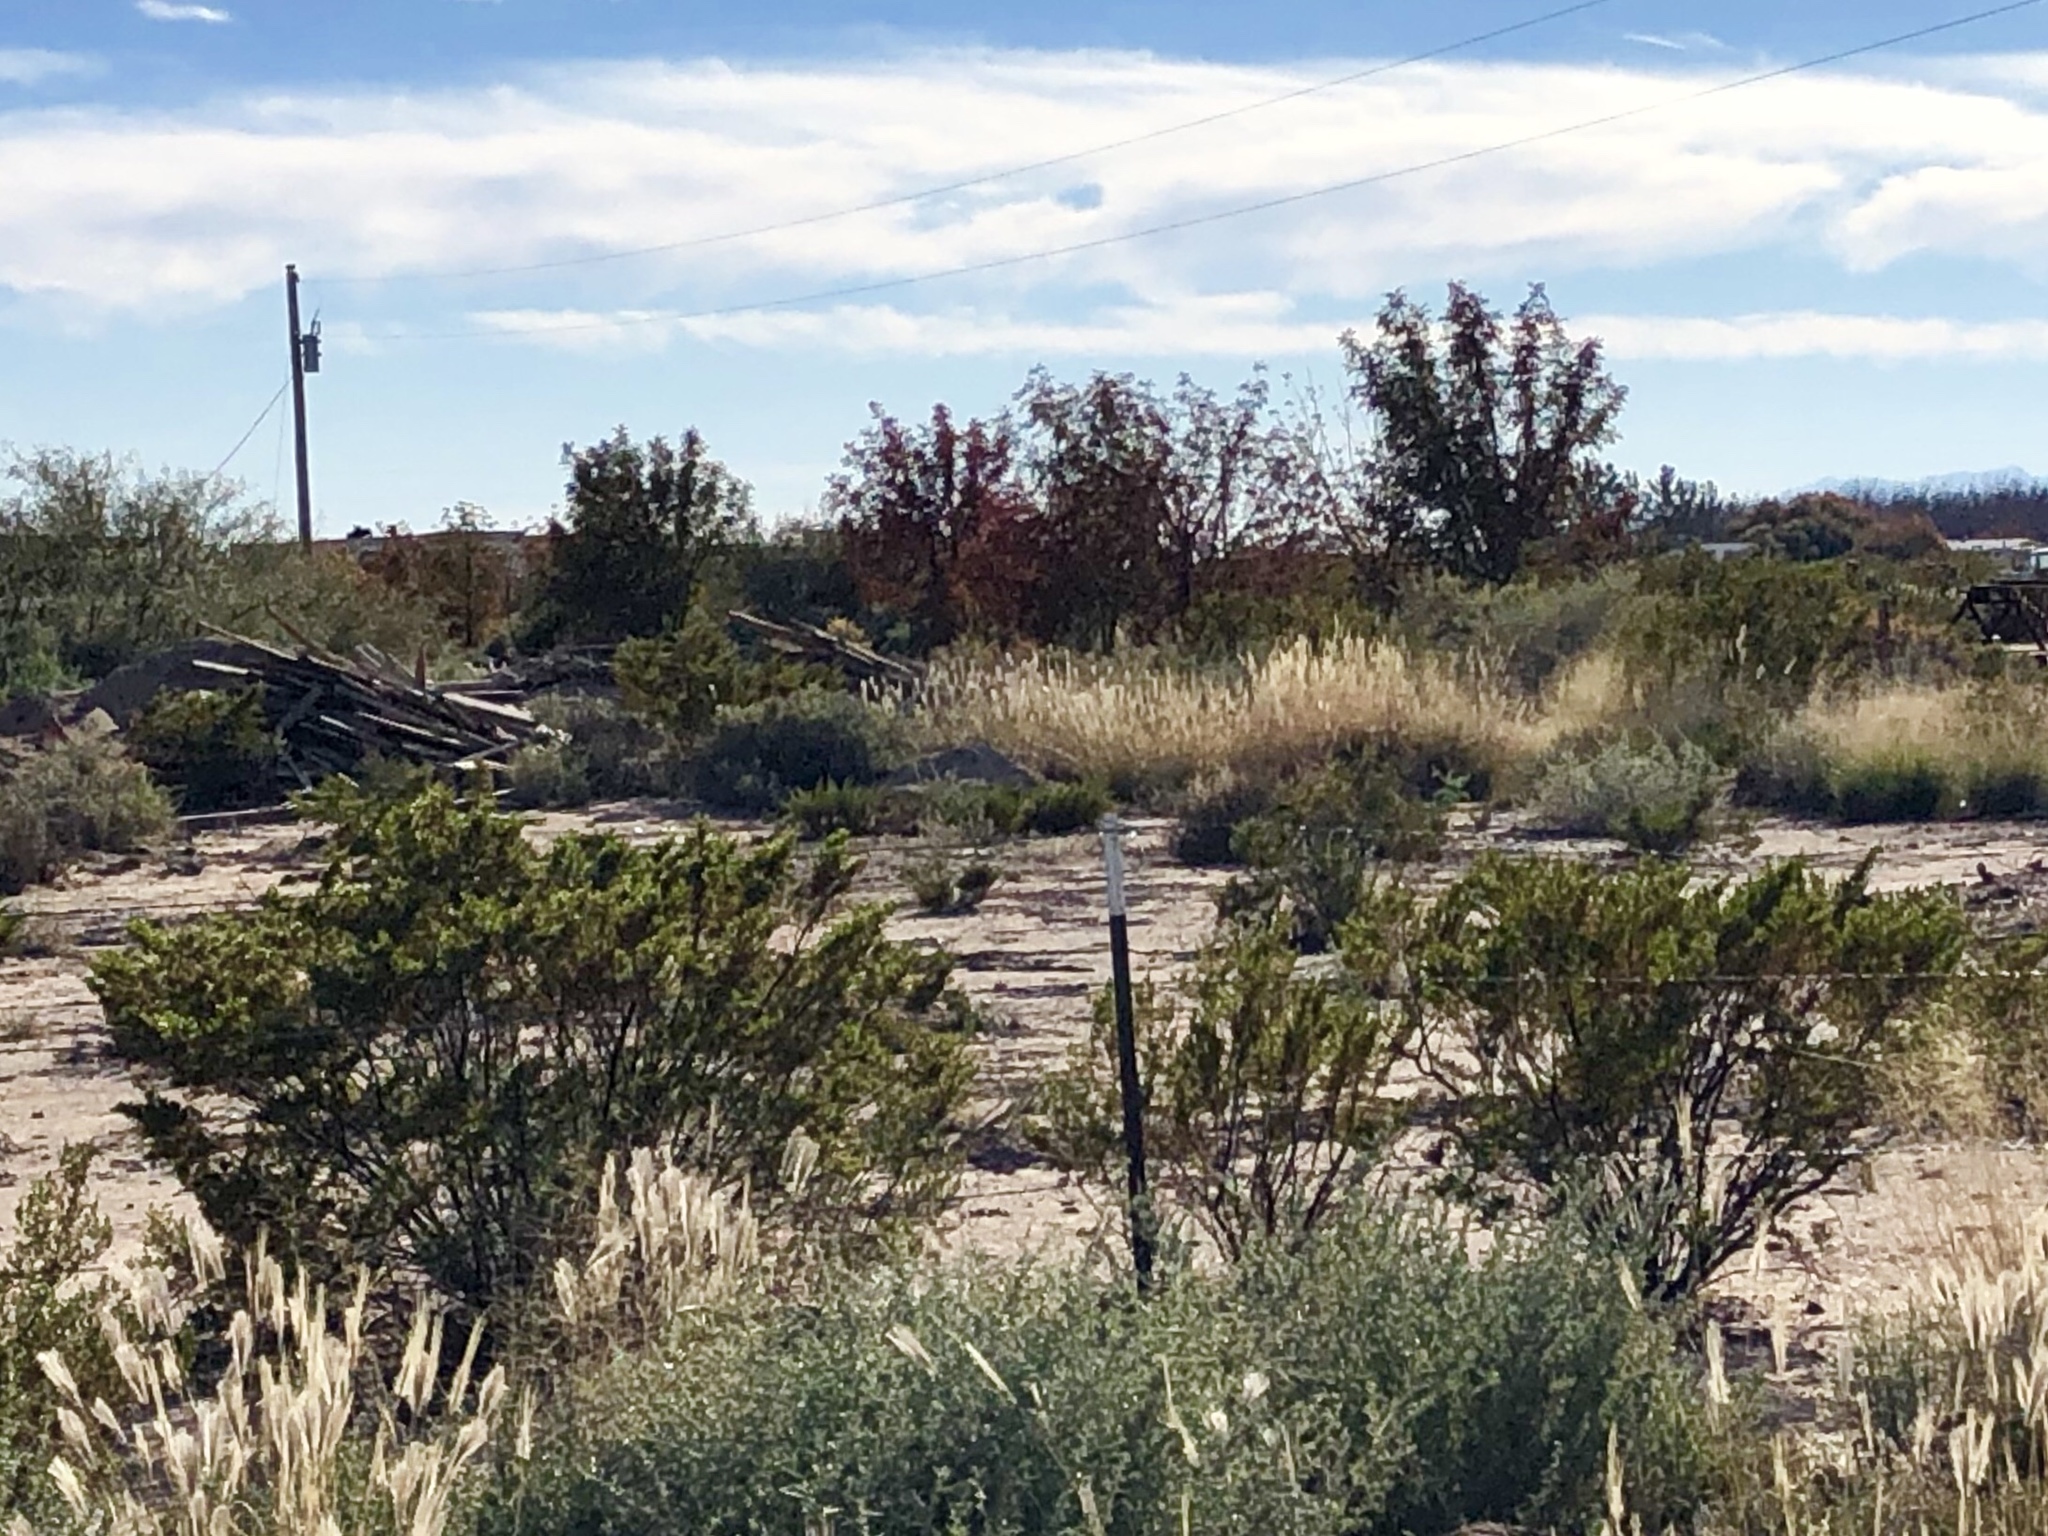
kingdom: Plantae
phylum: Tracheophyta
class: Magnoliopsida
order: Zygophyllales
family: Zygophyllaceae
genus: Larrea
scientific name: Larrea tridentata
